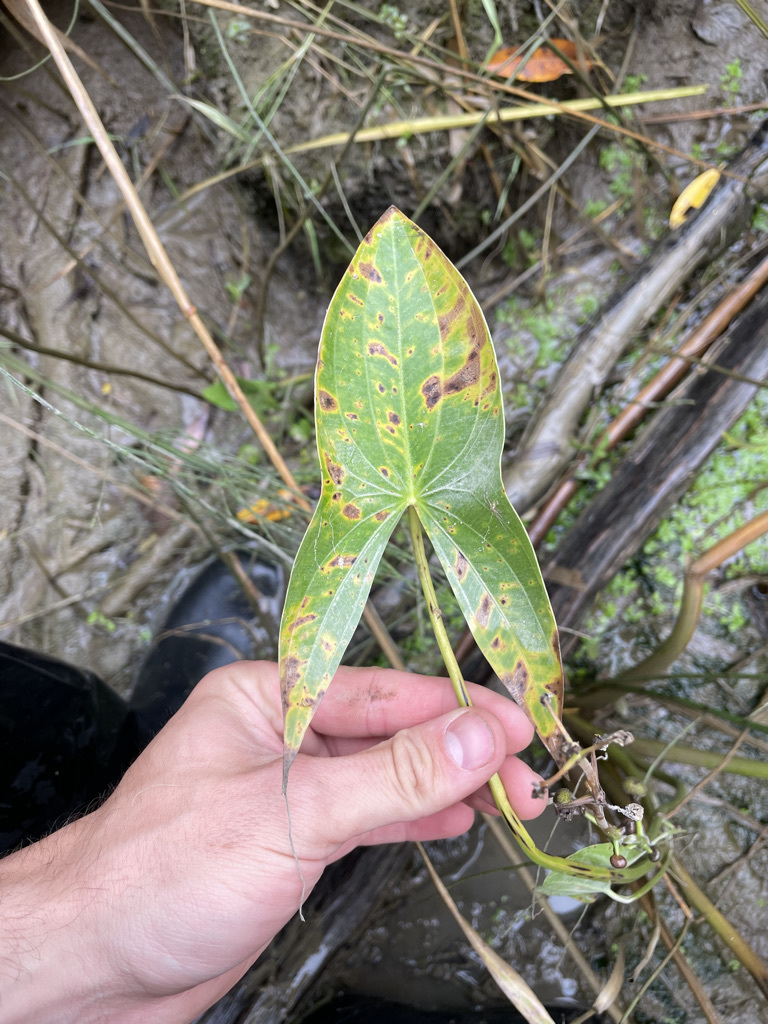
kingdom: Plantae
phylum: Tracheophyta
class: Liliopsida
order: Alismatales
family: Alismataceae
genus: Sagittaria
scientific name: Sagittaria latifolia
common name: Duck-potato
